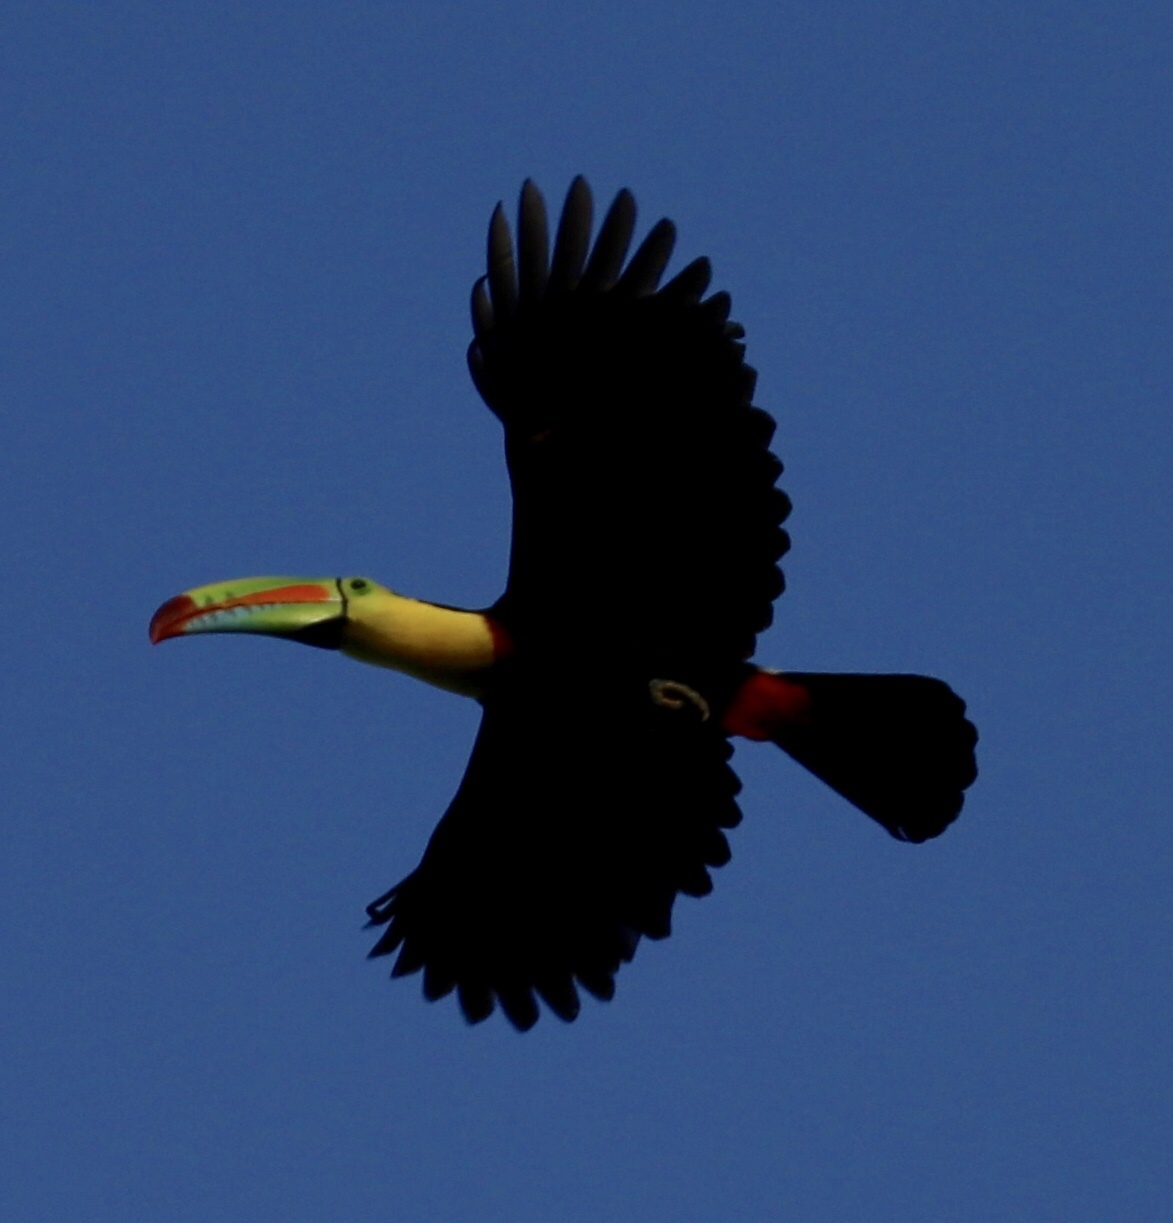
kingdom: Animalia
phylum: Chordata
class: Aves
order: Piciformes
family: Ramphastidae
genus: Ramphastos
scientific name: Ramphastos sulfuratus
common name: Keel-billed toucan
